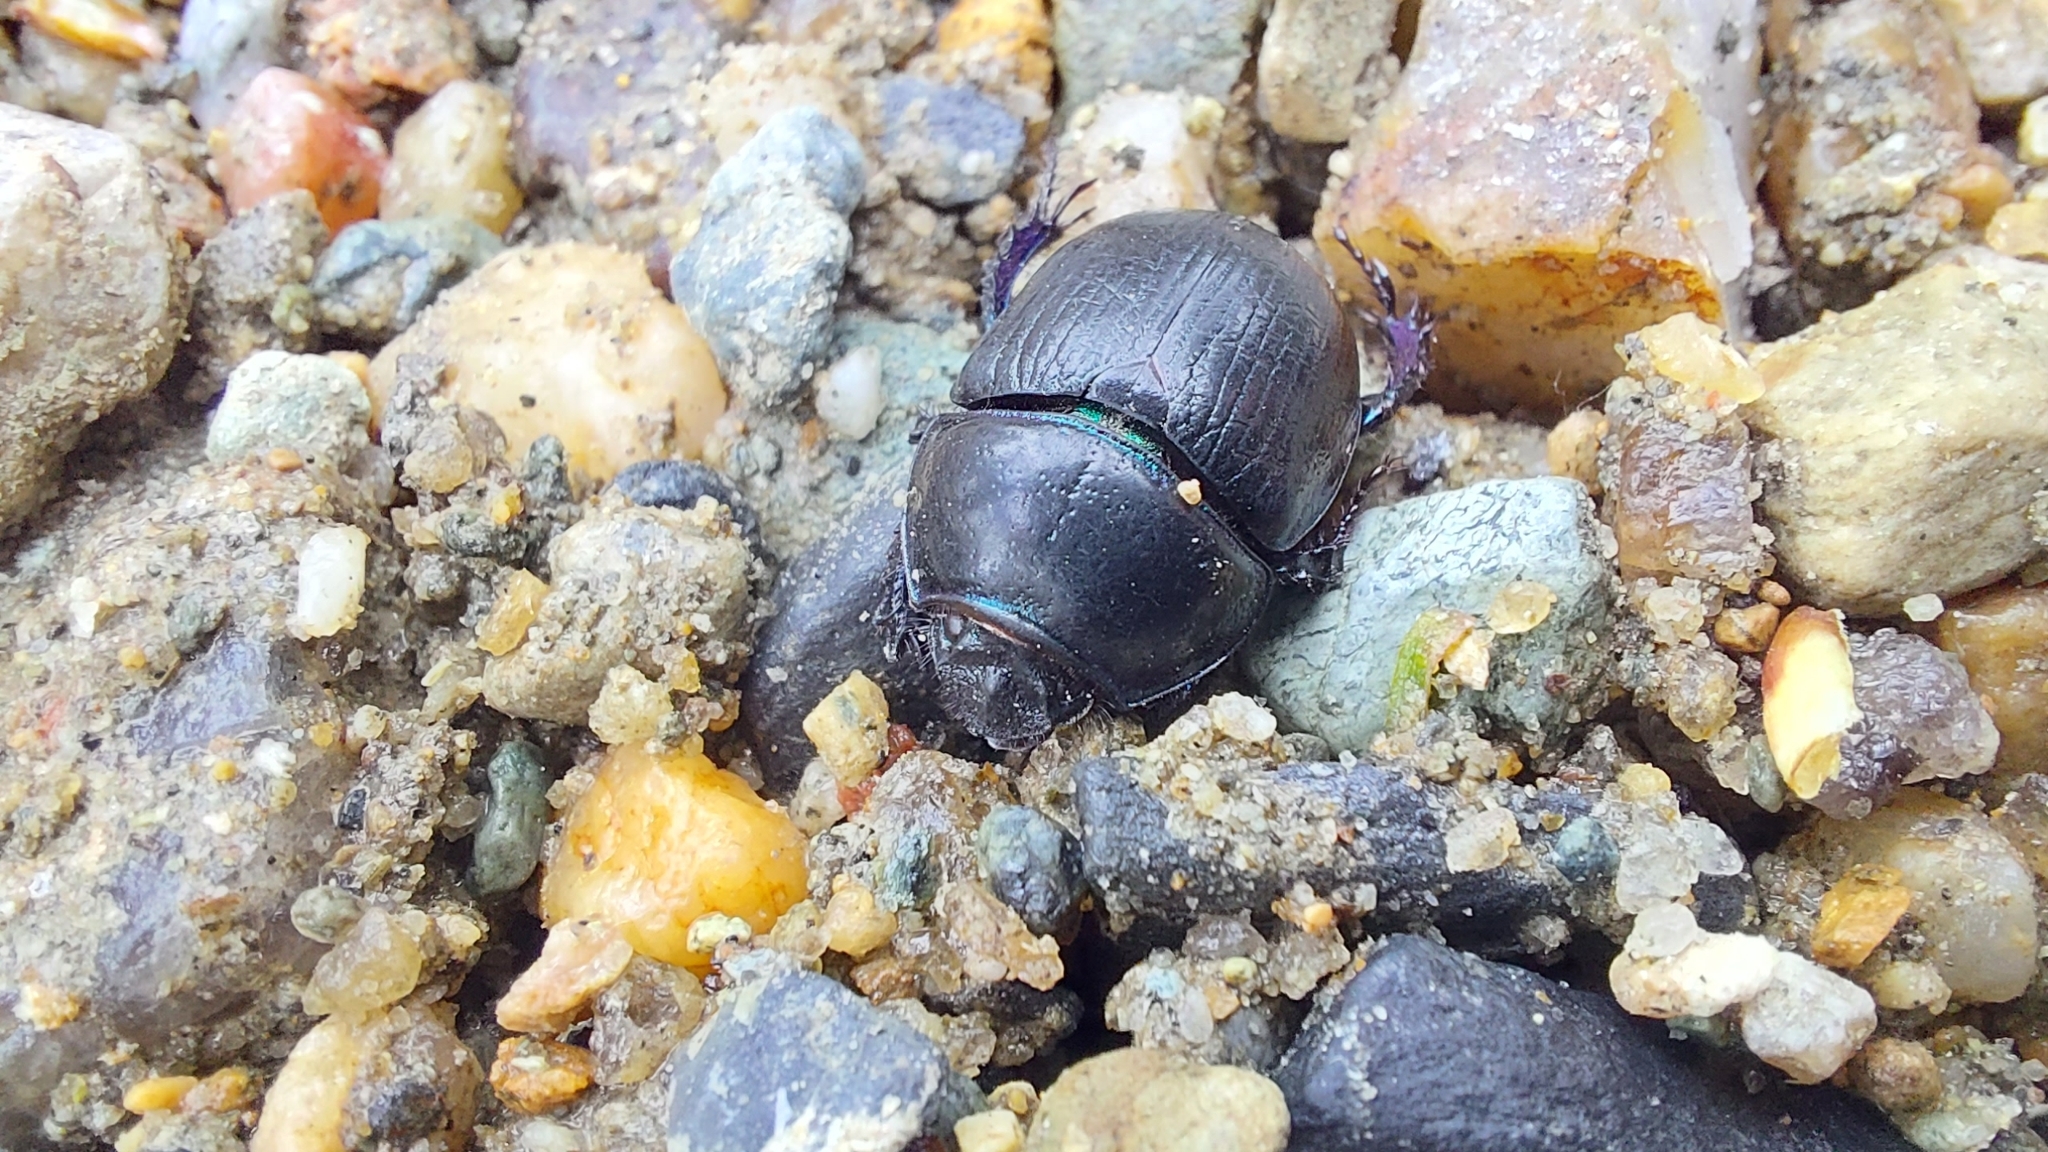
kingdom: Animalia
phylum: Arthropoda
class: Insecta
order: Coleoptera
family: Geotrupidae
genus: Anoplotrupes
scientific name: Anoplotrupes stercorosus
